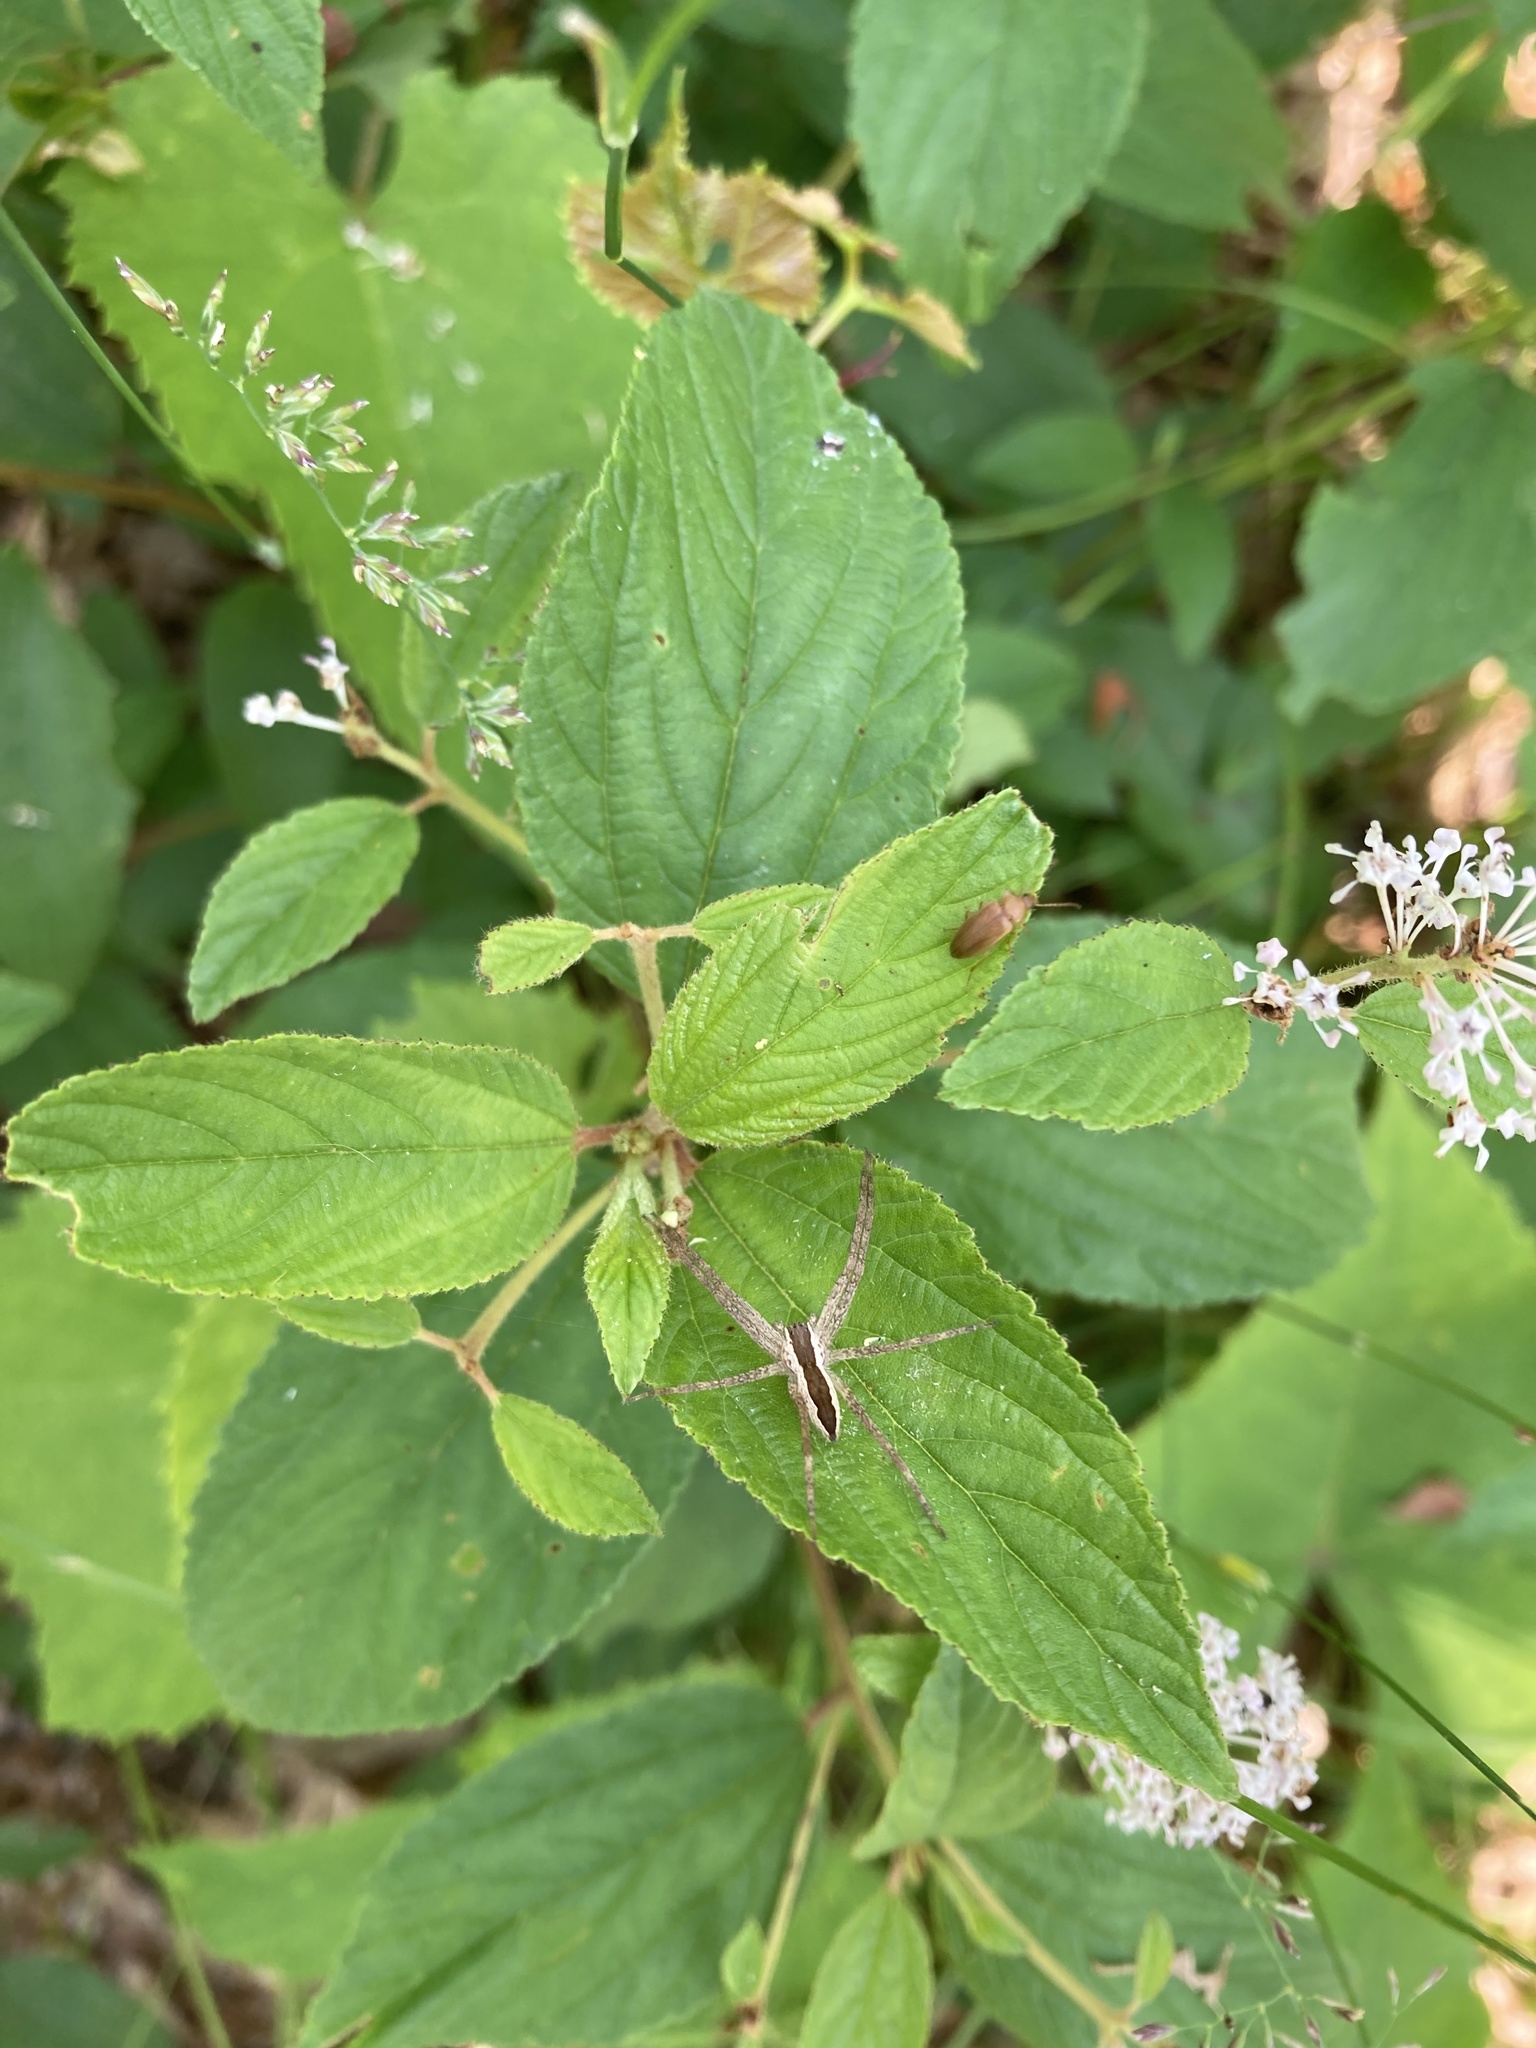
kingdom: Animalia
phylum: Arthropoda
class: Arachnida
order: Araneae
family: Pisauridae
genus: Pisaurina
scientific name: Pisaurina mira
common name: American nursery web spider
